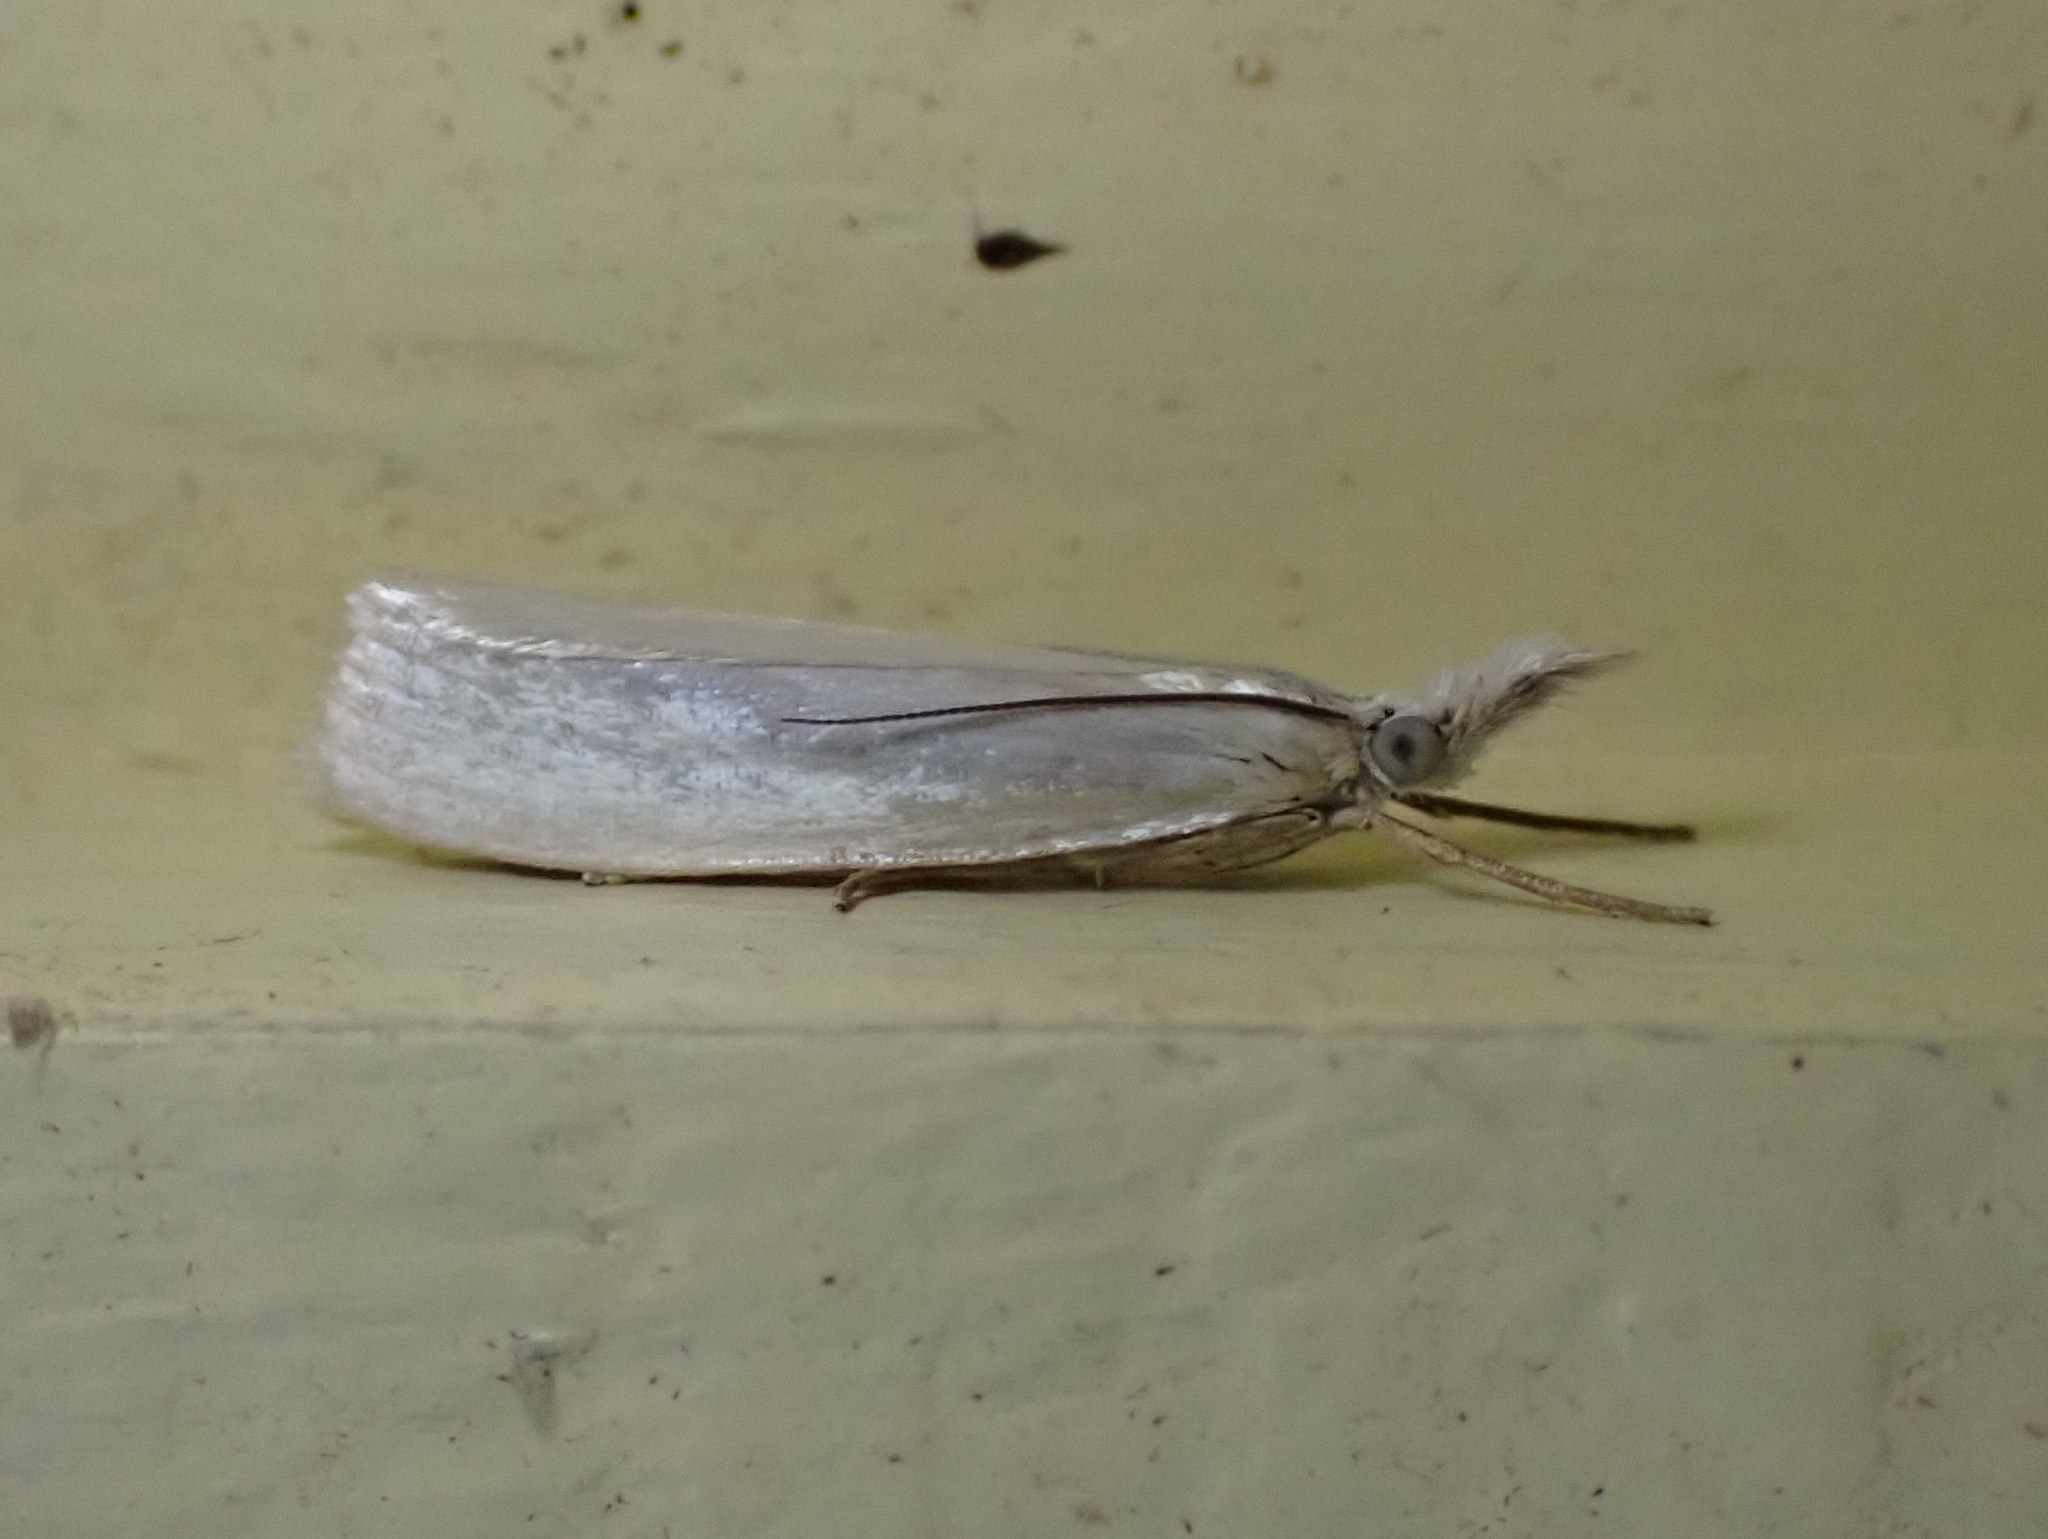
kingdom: Animalia
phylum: Arthropoda
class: Insecta
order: Lepidoptera
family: Crambidae
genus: Crambus
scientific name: Crambus perlellus
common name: Yellow satin veneer
